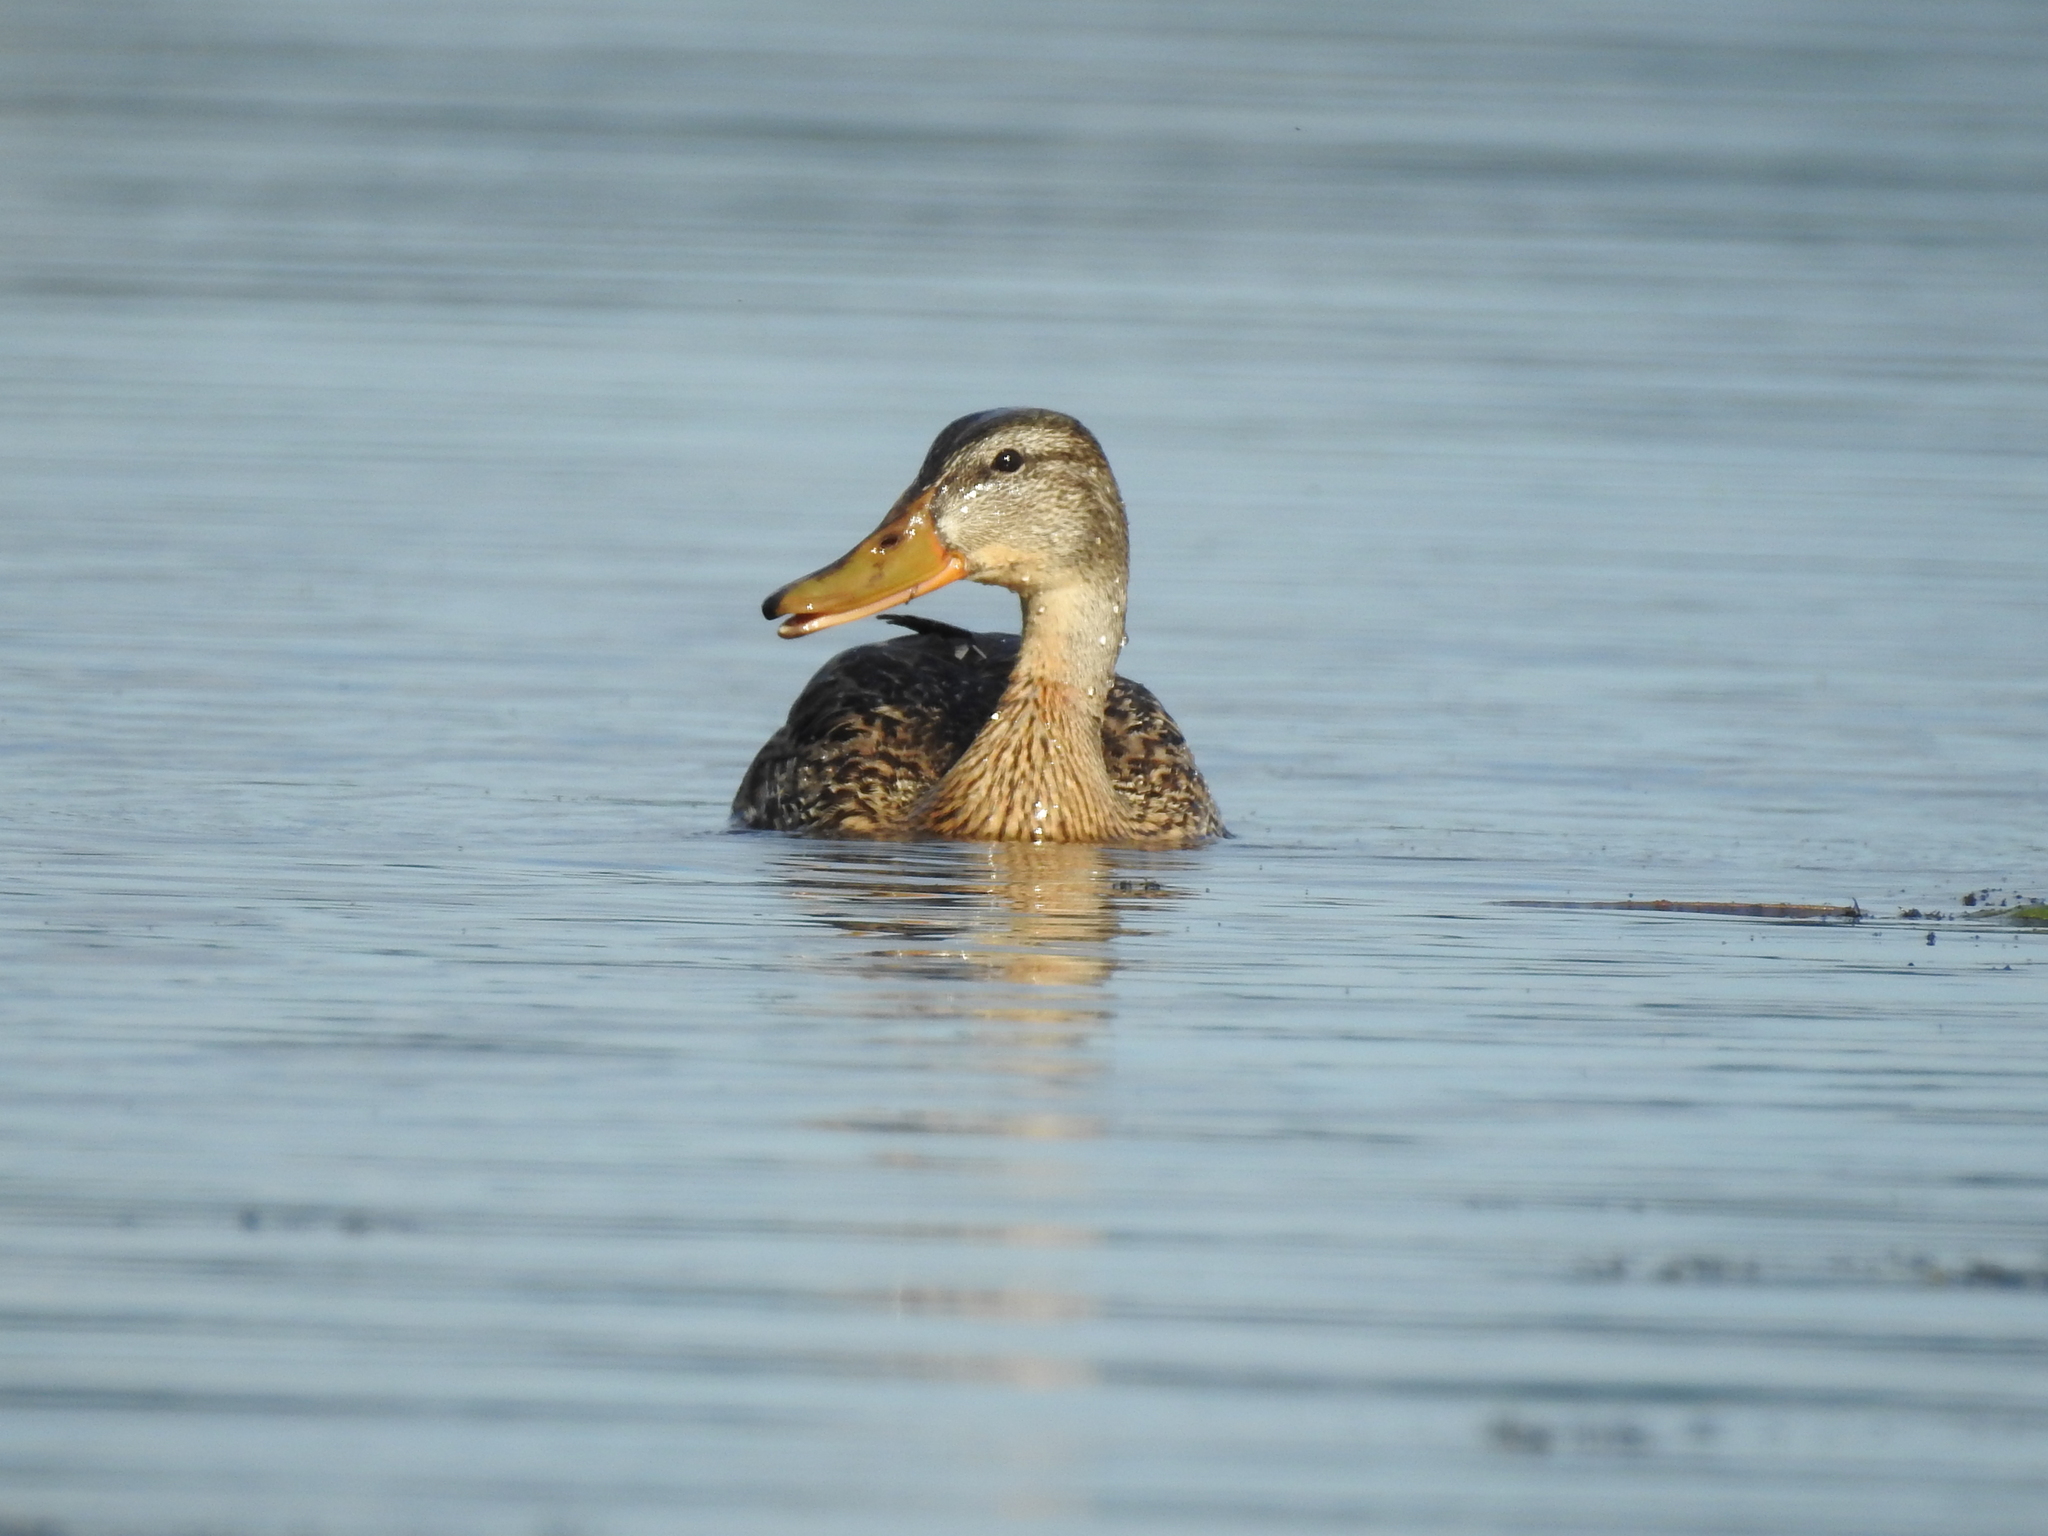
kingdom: Animalia
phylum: Chordata
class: Aves
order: Anseriformes
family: Anatidae
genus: Anas
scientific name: Anas platyrhynchos
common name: Mallard
